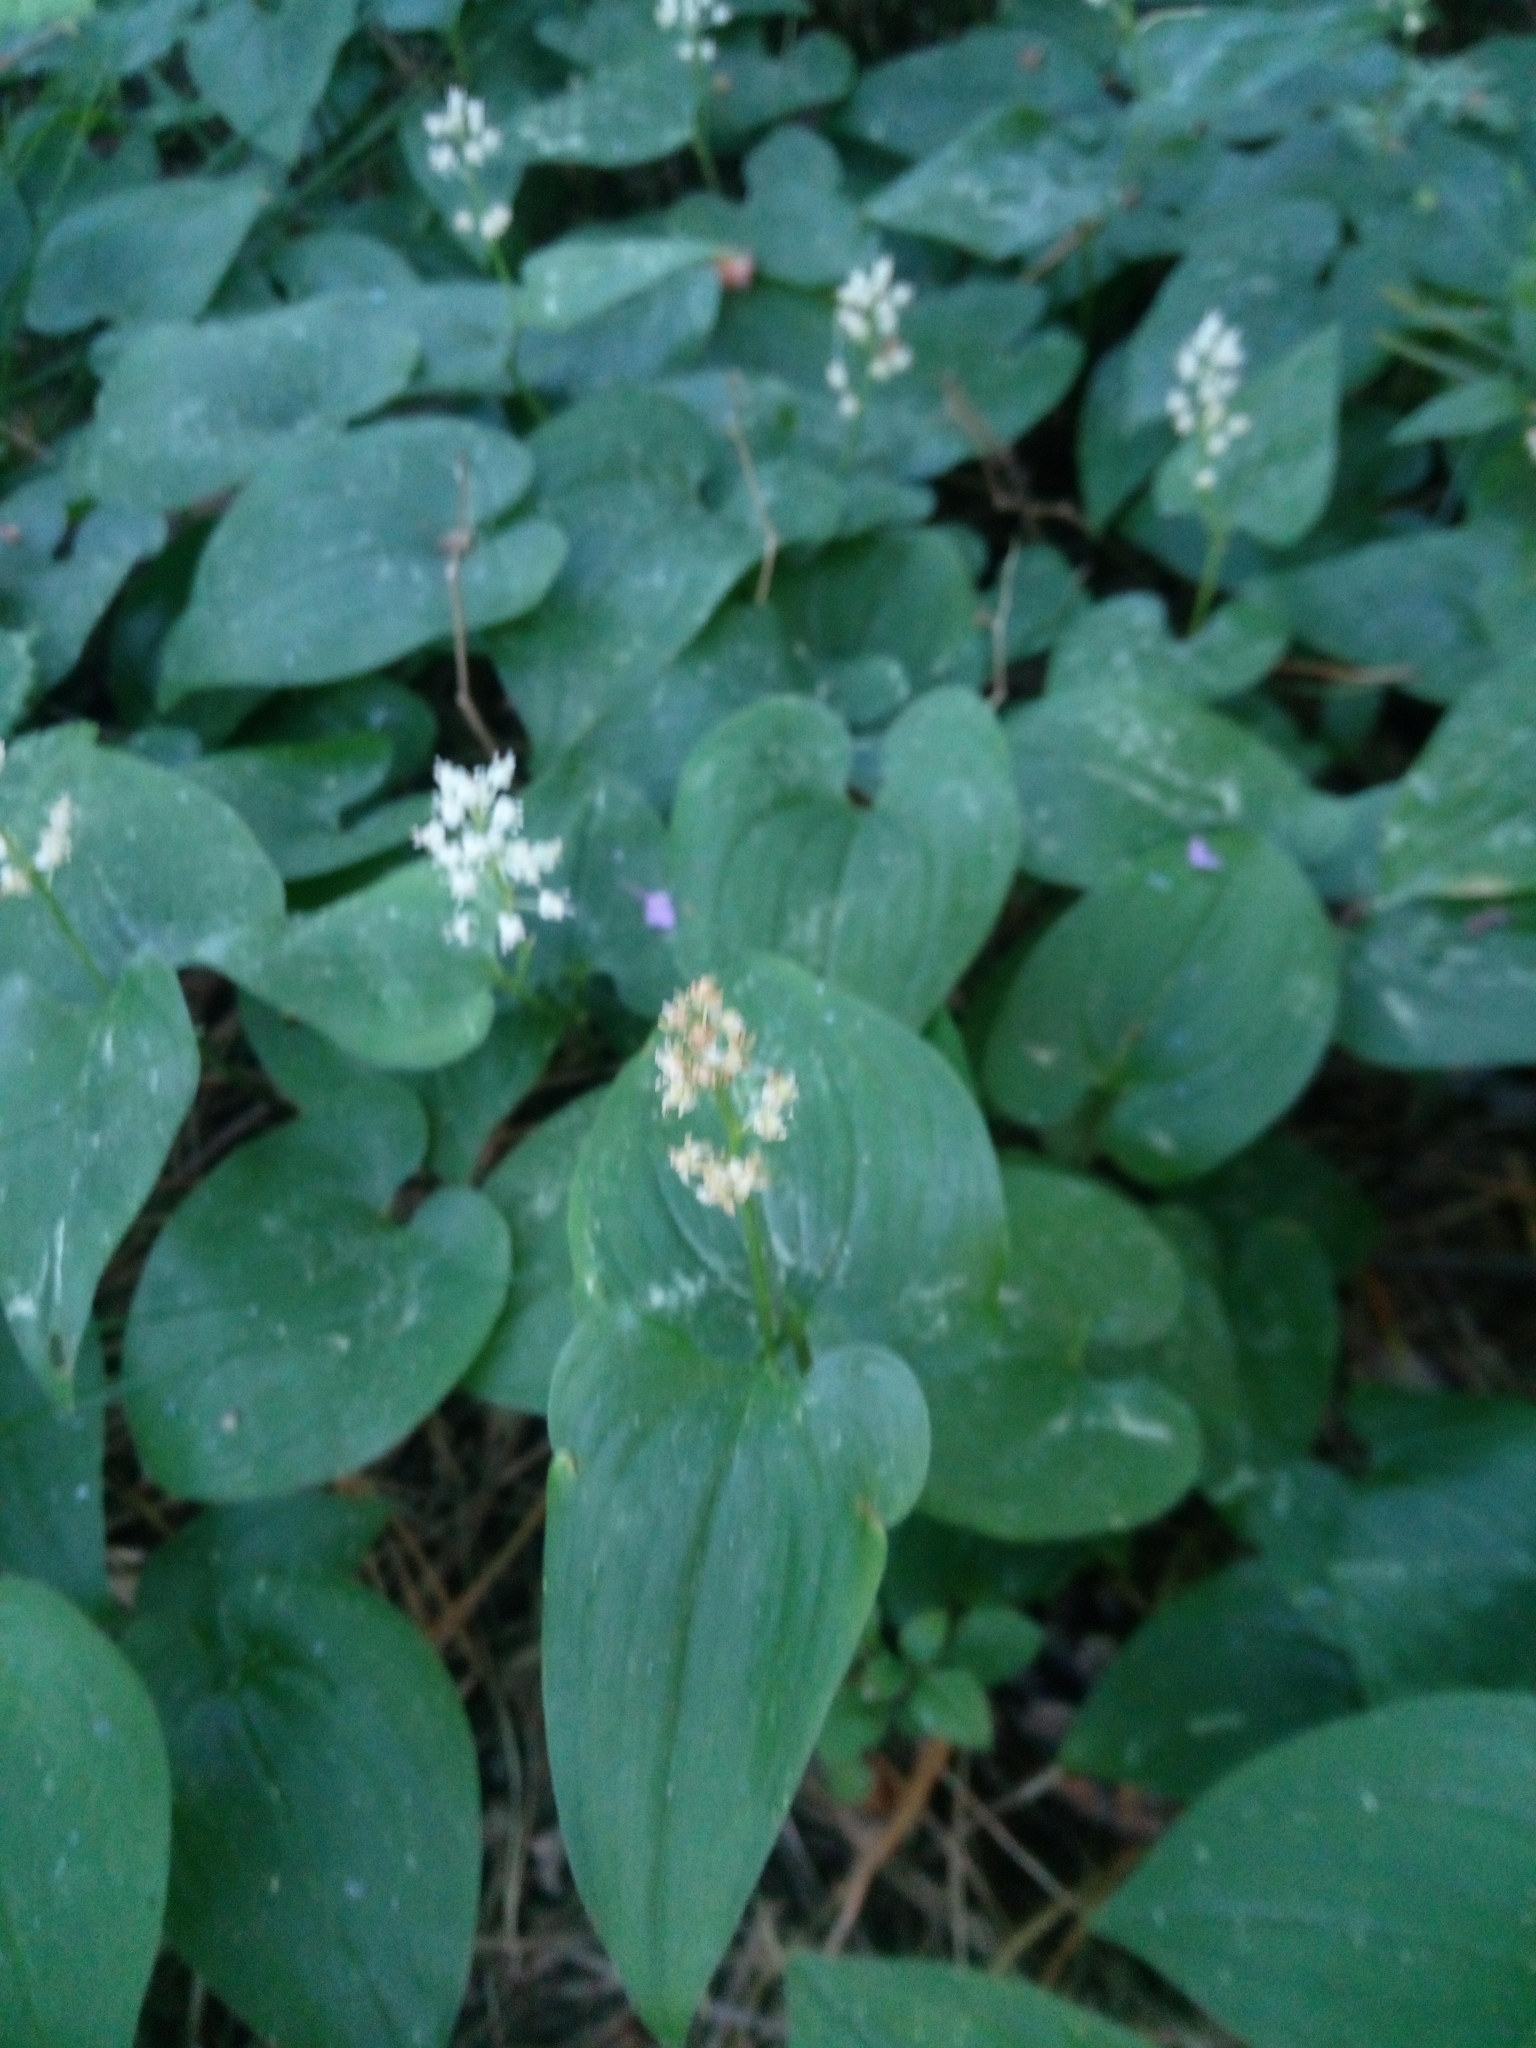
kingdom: Plantae
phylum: Tracheophyta
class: Liliopsida
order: Asparagales
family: Asparagaceae
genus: Maianthemum
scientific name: Maianthemum bifolium
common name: May lily
